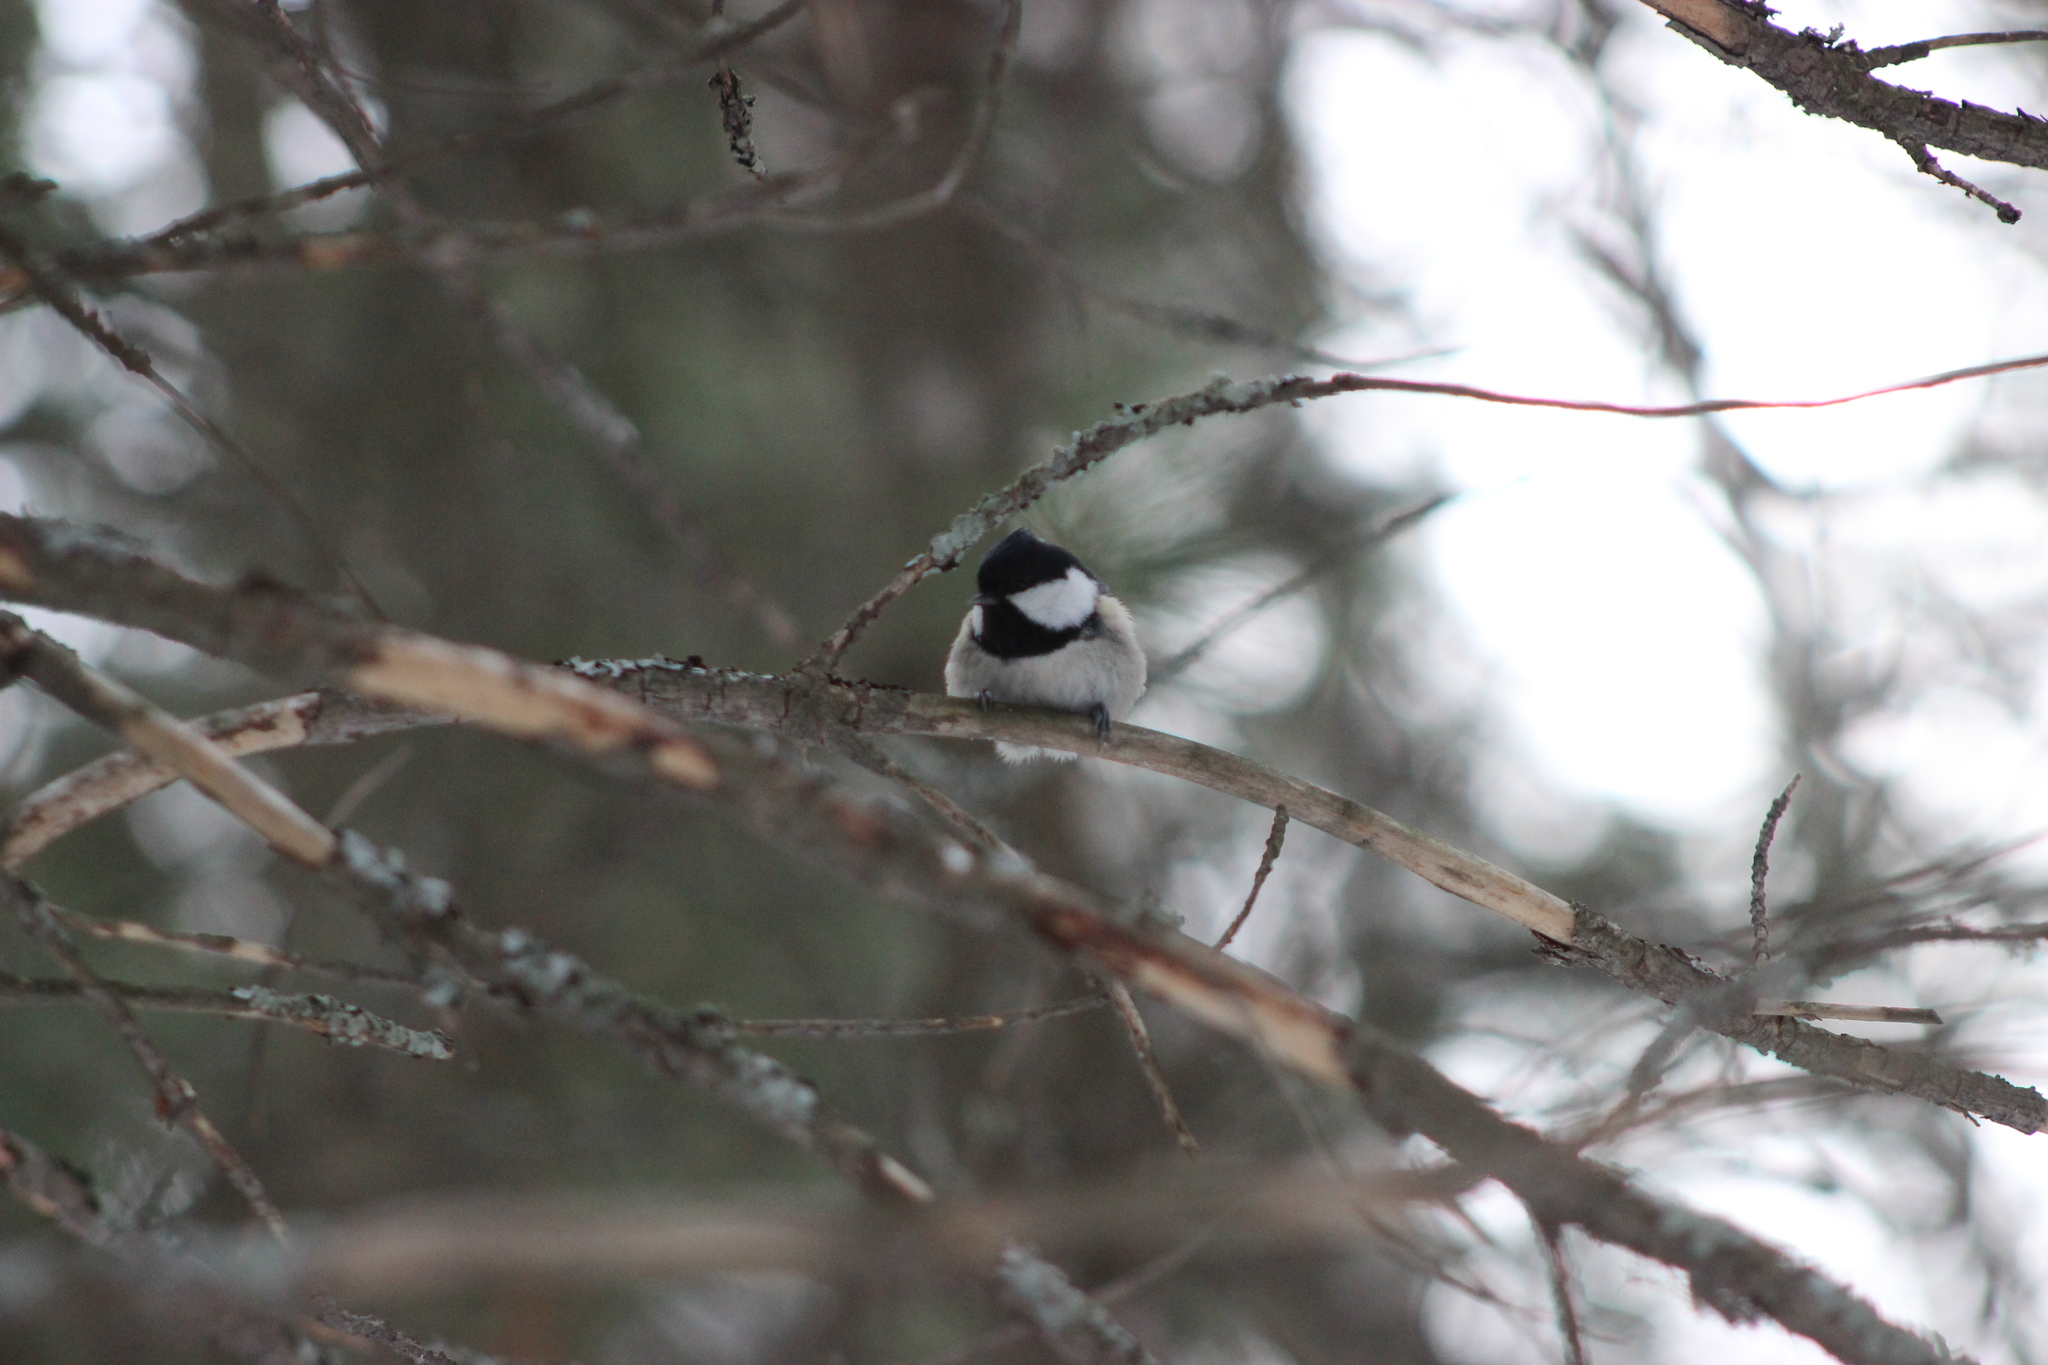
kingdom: Animalia
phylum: Chordata
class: Aves
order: Passeriformes
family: Paridae
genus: Periparus
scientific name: Periparus ater
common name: Coal tit
